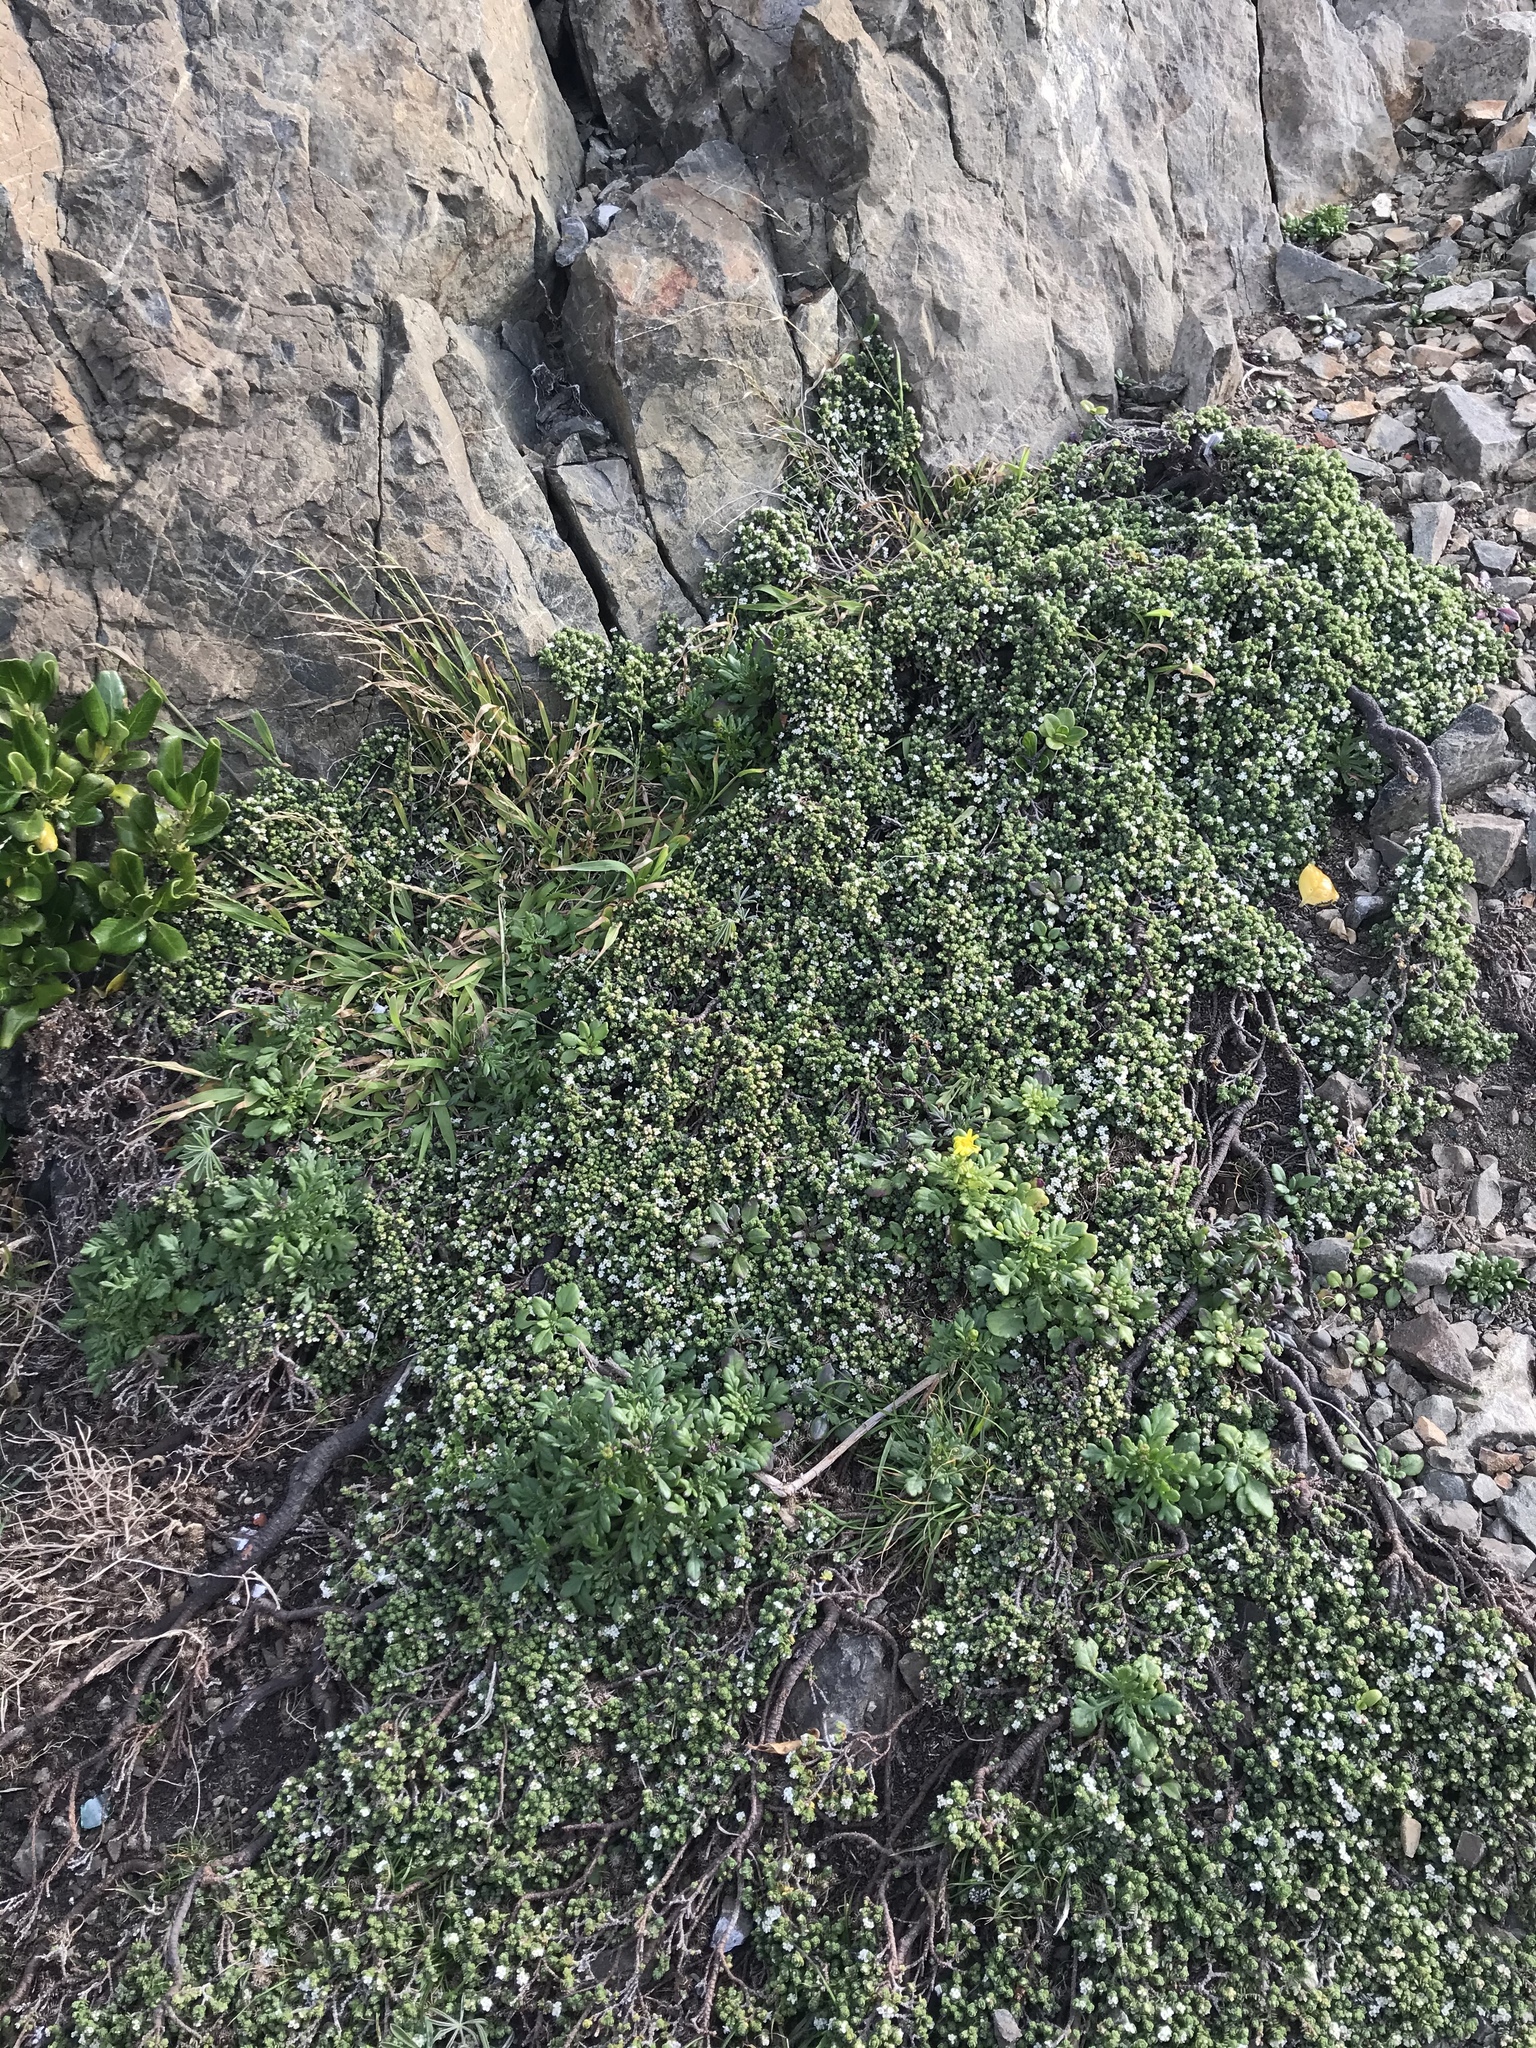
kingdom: Plantae
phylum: Tracheophyta
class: Magnoliopsida
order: Malvales
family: Thymelaeaceae
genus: Pimelea
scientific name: Pimelea prostrata
